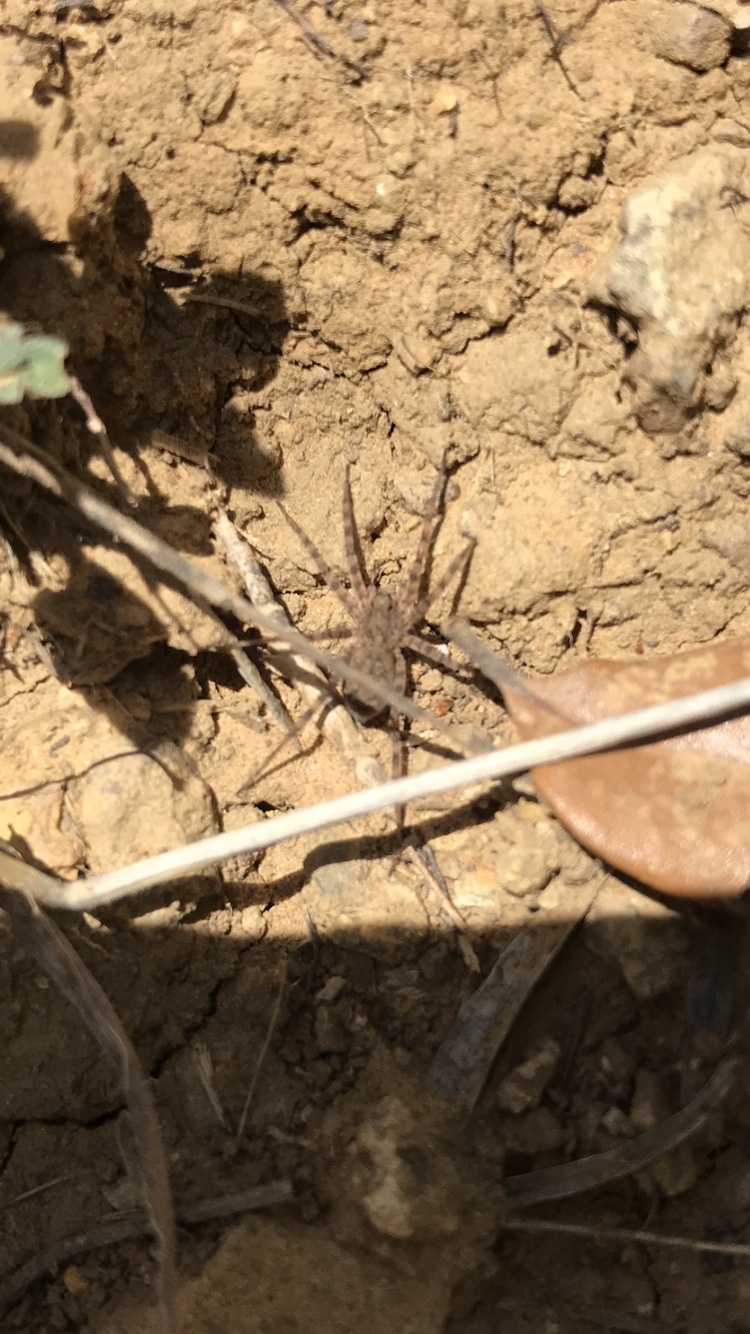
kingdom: Animalia
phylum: Arthropoda
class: Arachnida
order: Araneae
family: Lycosidae
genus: Pardosa
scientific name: Pardosa mercurialis
